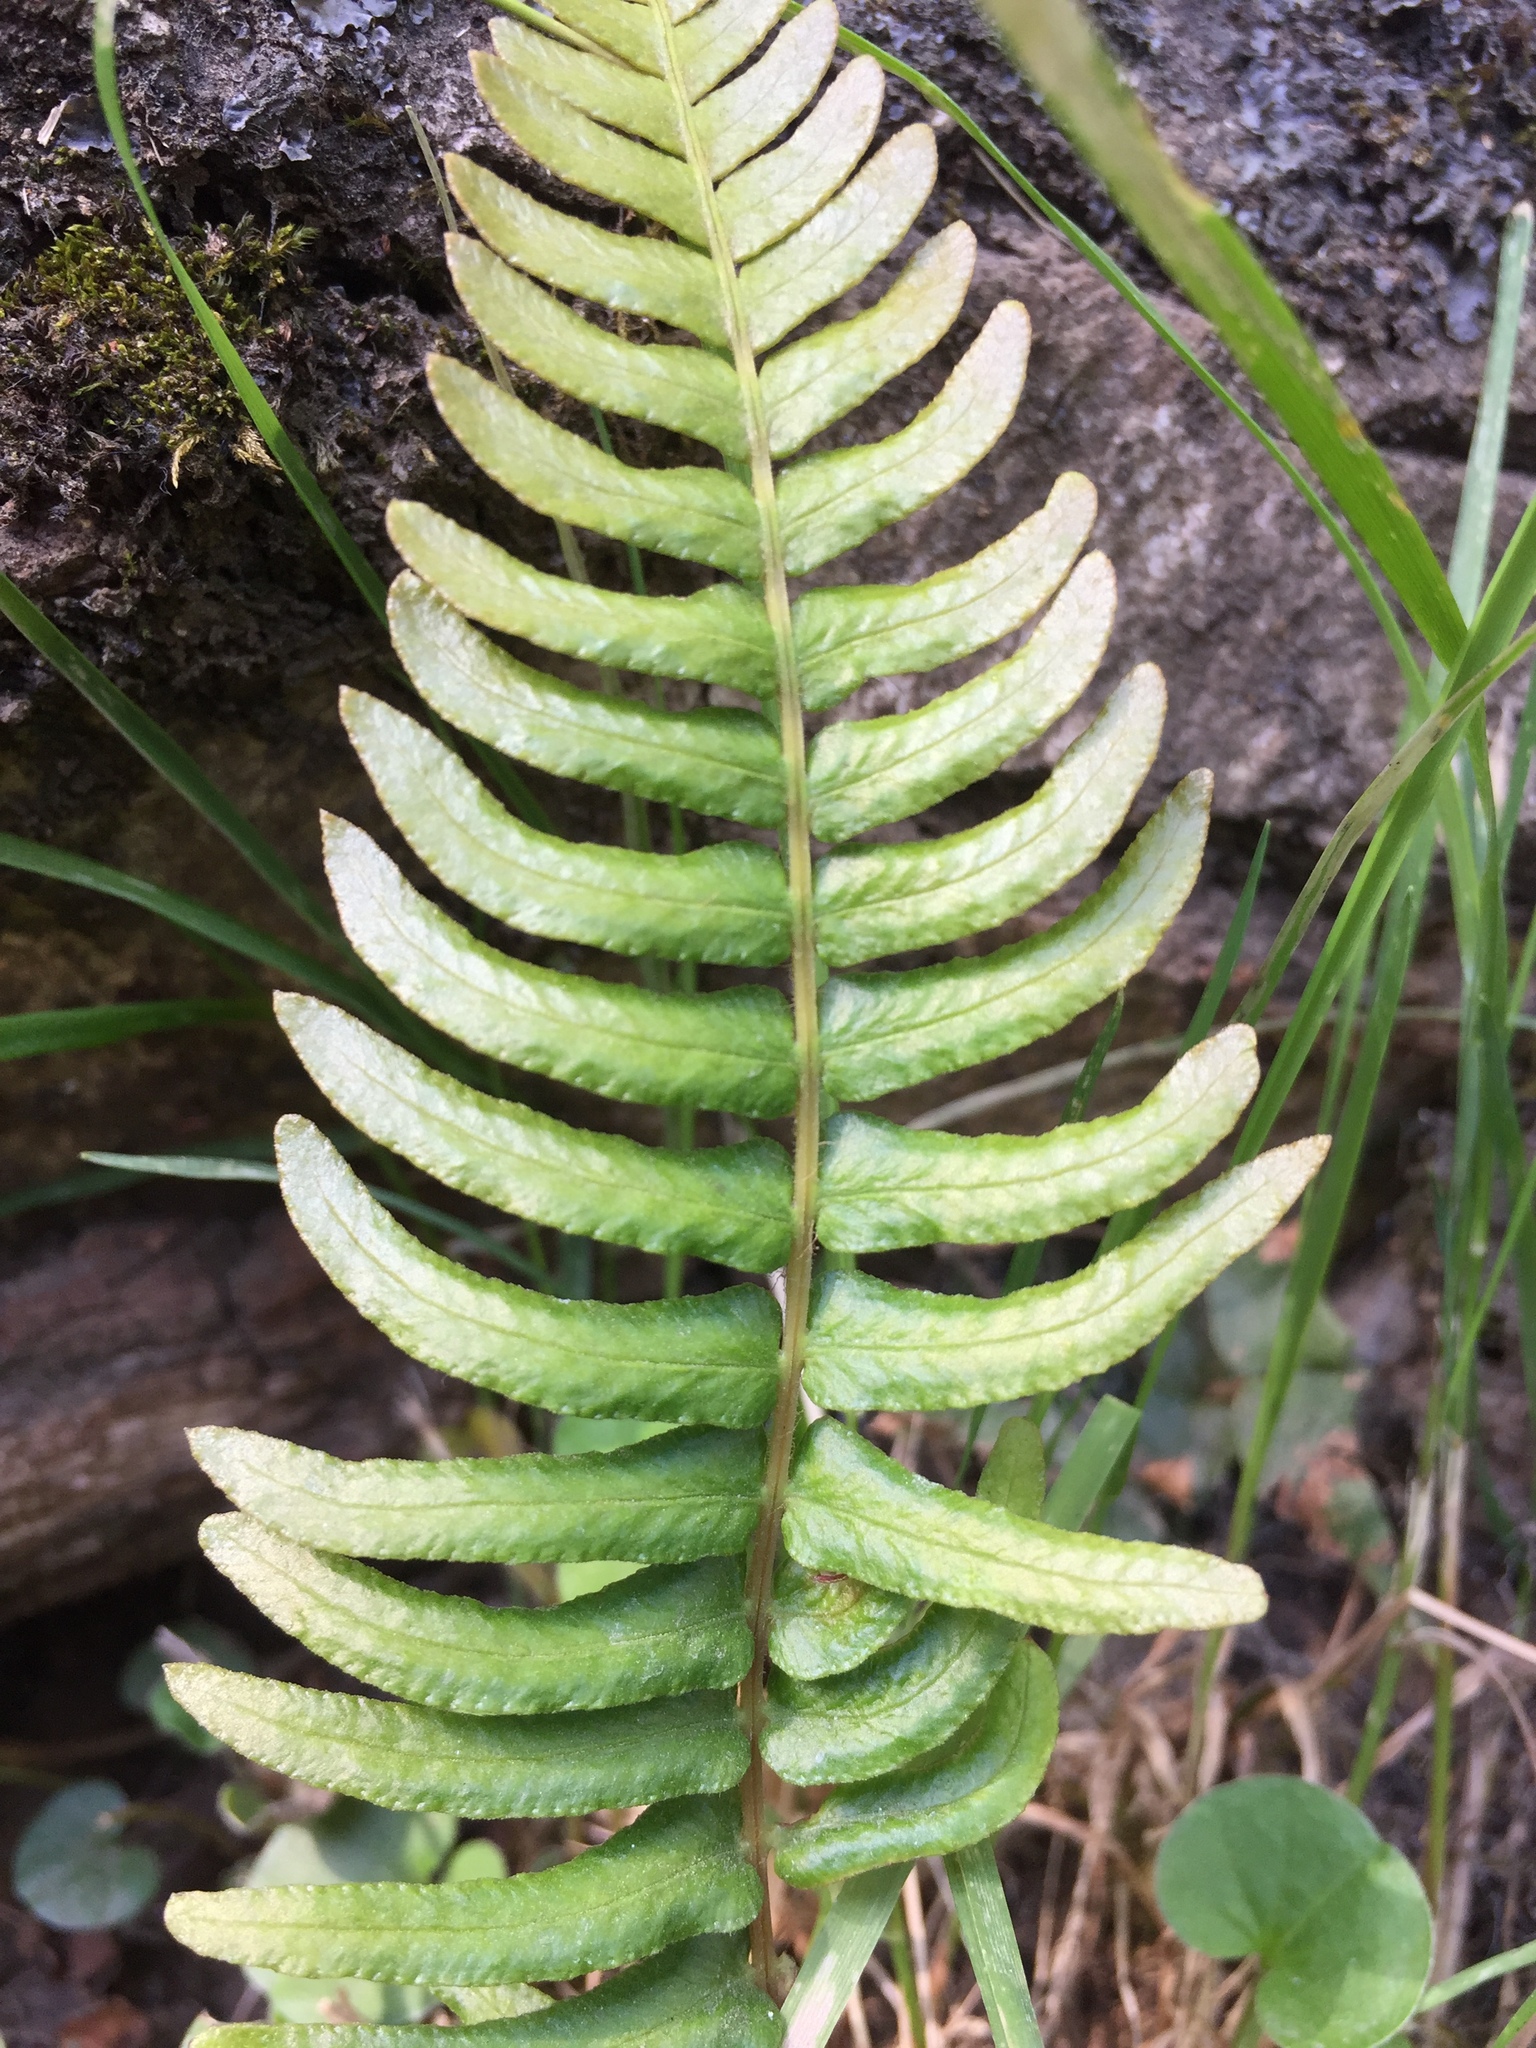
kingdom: Plantae
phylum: Tracheophyta
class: Polypodiopsida
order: Polypodiales
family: Blechnaceae
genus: Blechnum
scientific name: Blechnum hastatum
